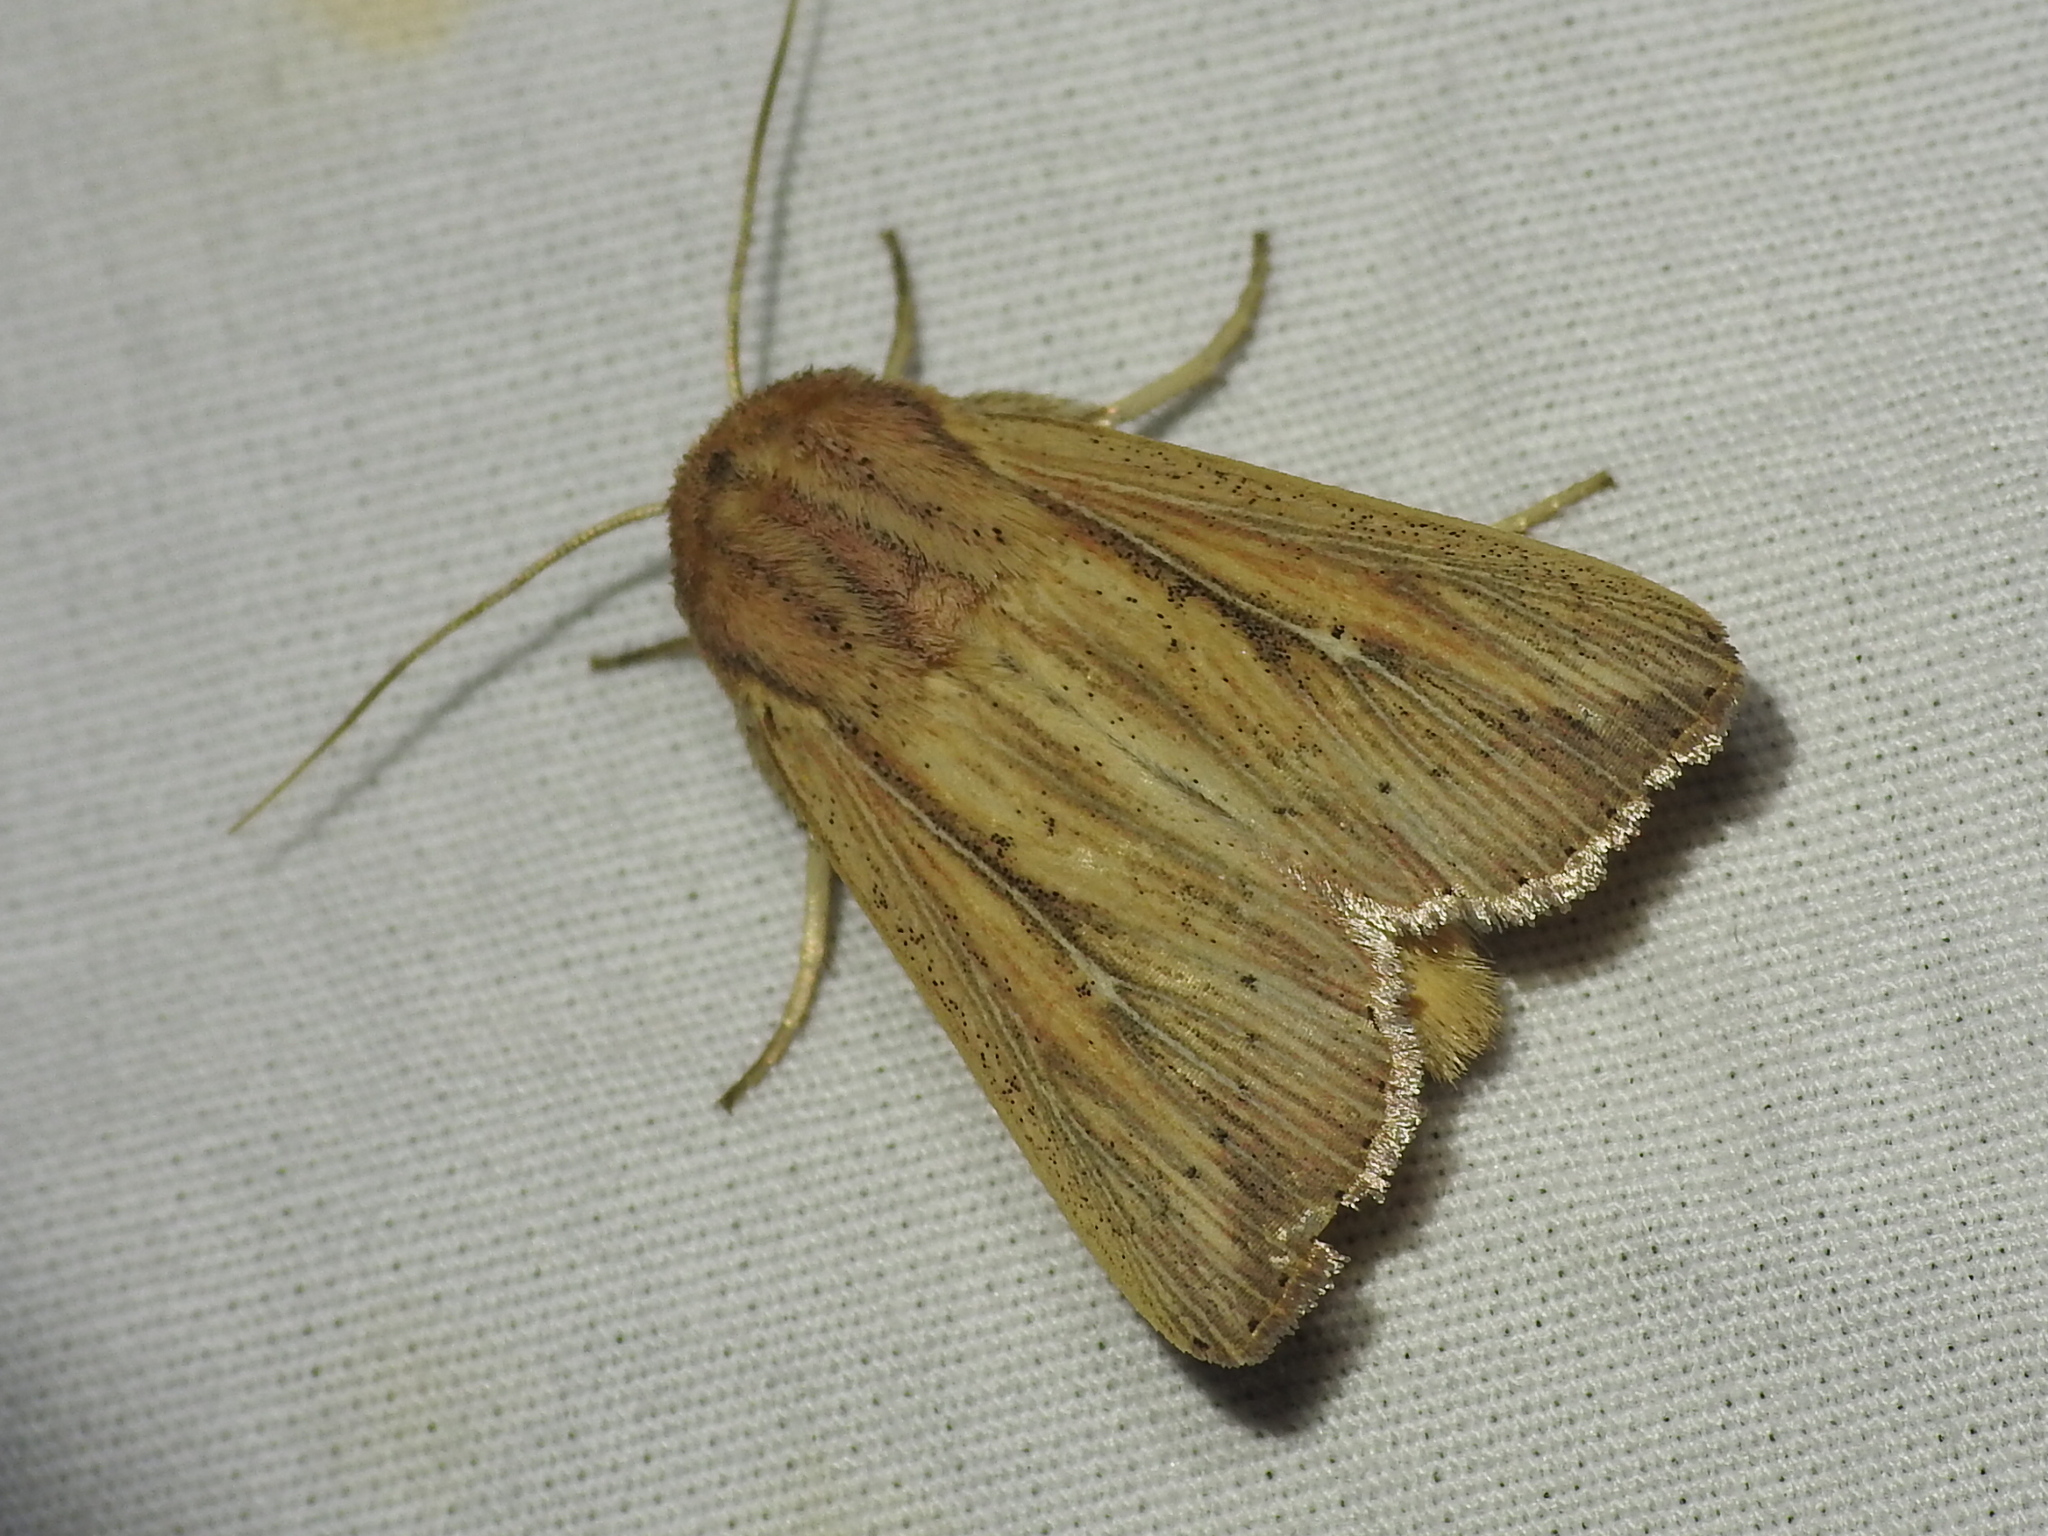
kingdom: Animalia
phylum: Arthropoda
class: Insecta
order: Lepidoptera
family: Noctuidae
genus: Leucania
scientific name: Leucania linda
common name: Linda's wainscot
